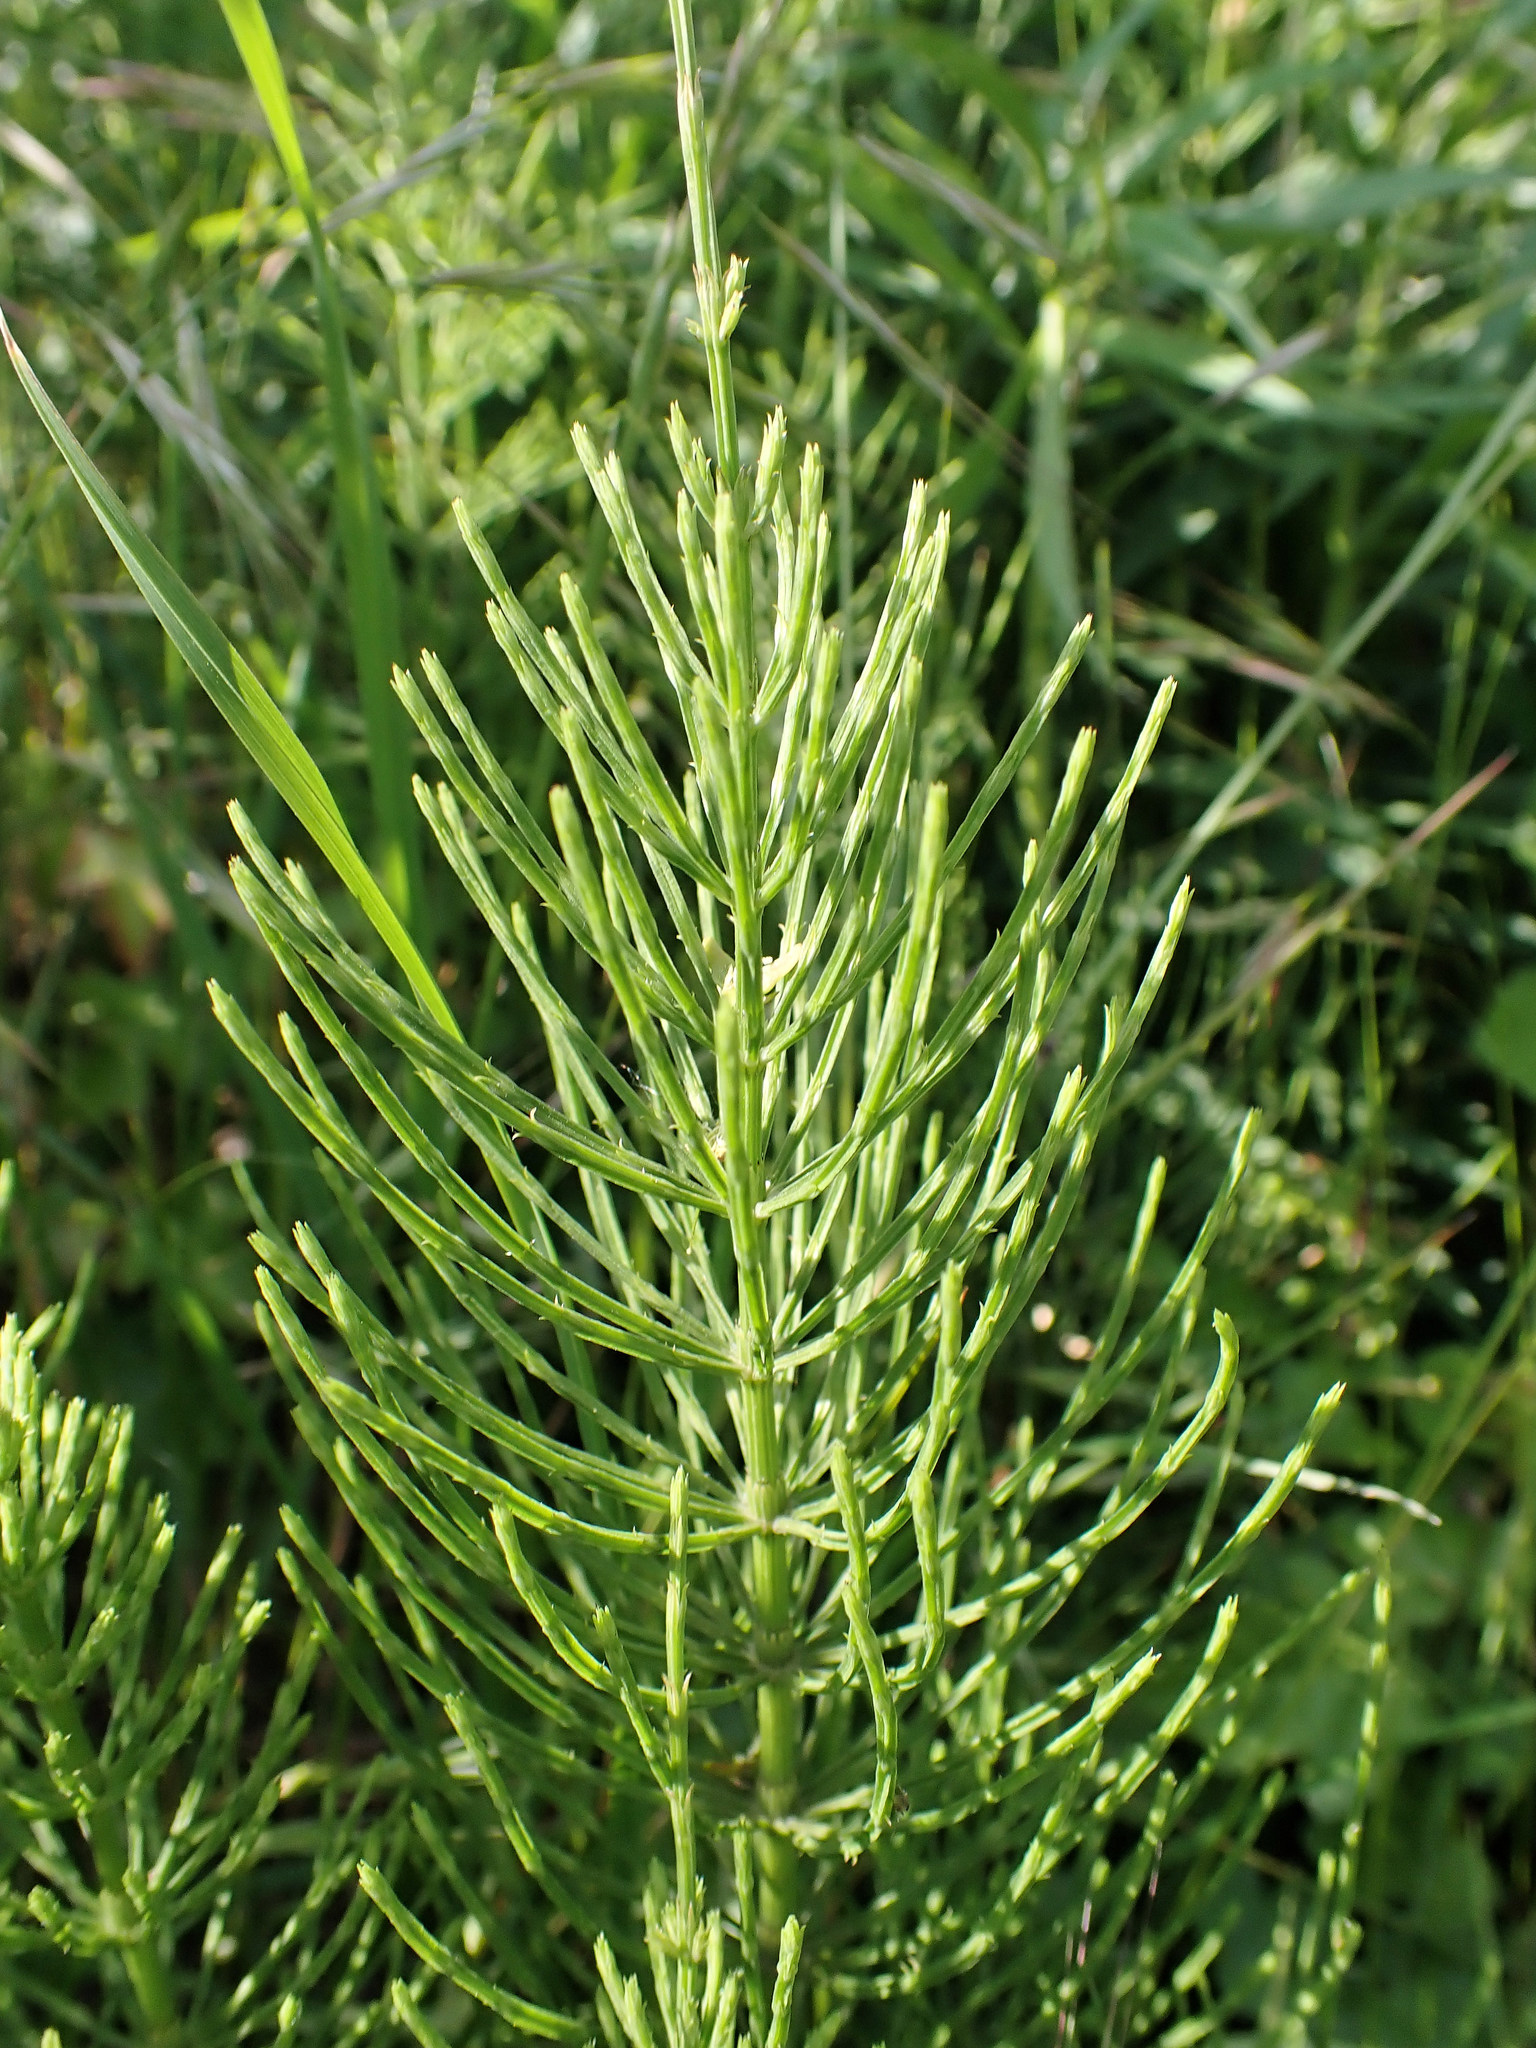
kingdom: Plantae
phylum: Tracheophyta
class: Polypodiopsida
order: Equisetales
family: Equisetaceae
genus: Equisetum
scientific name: Equisetum arvense
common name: Field horsetail
